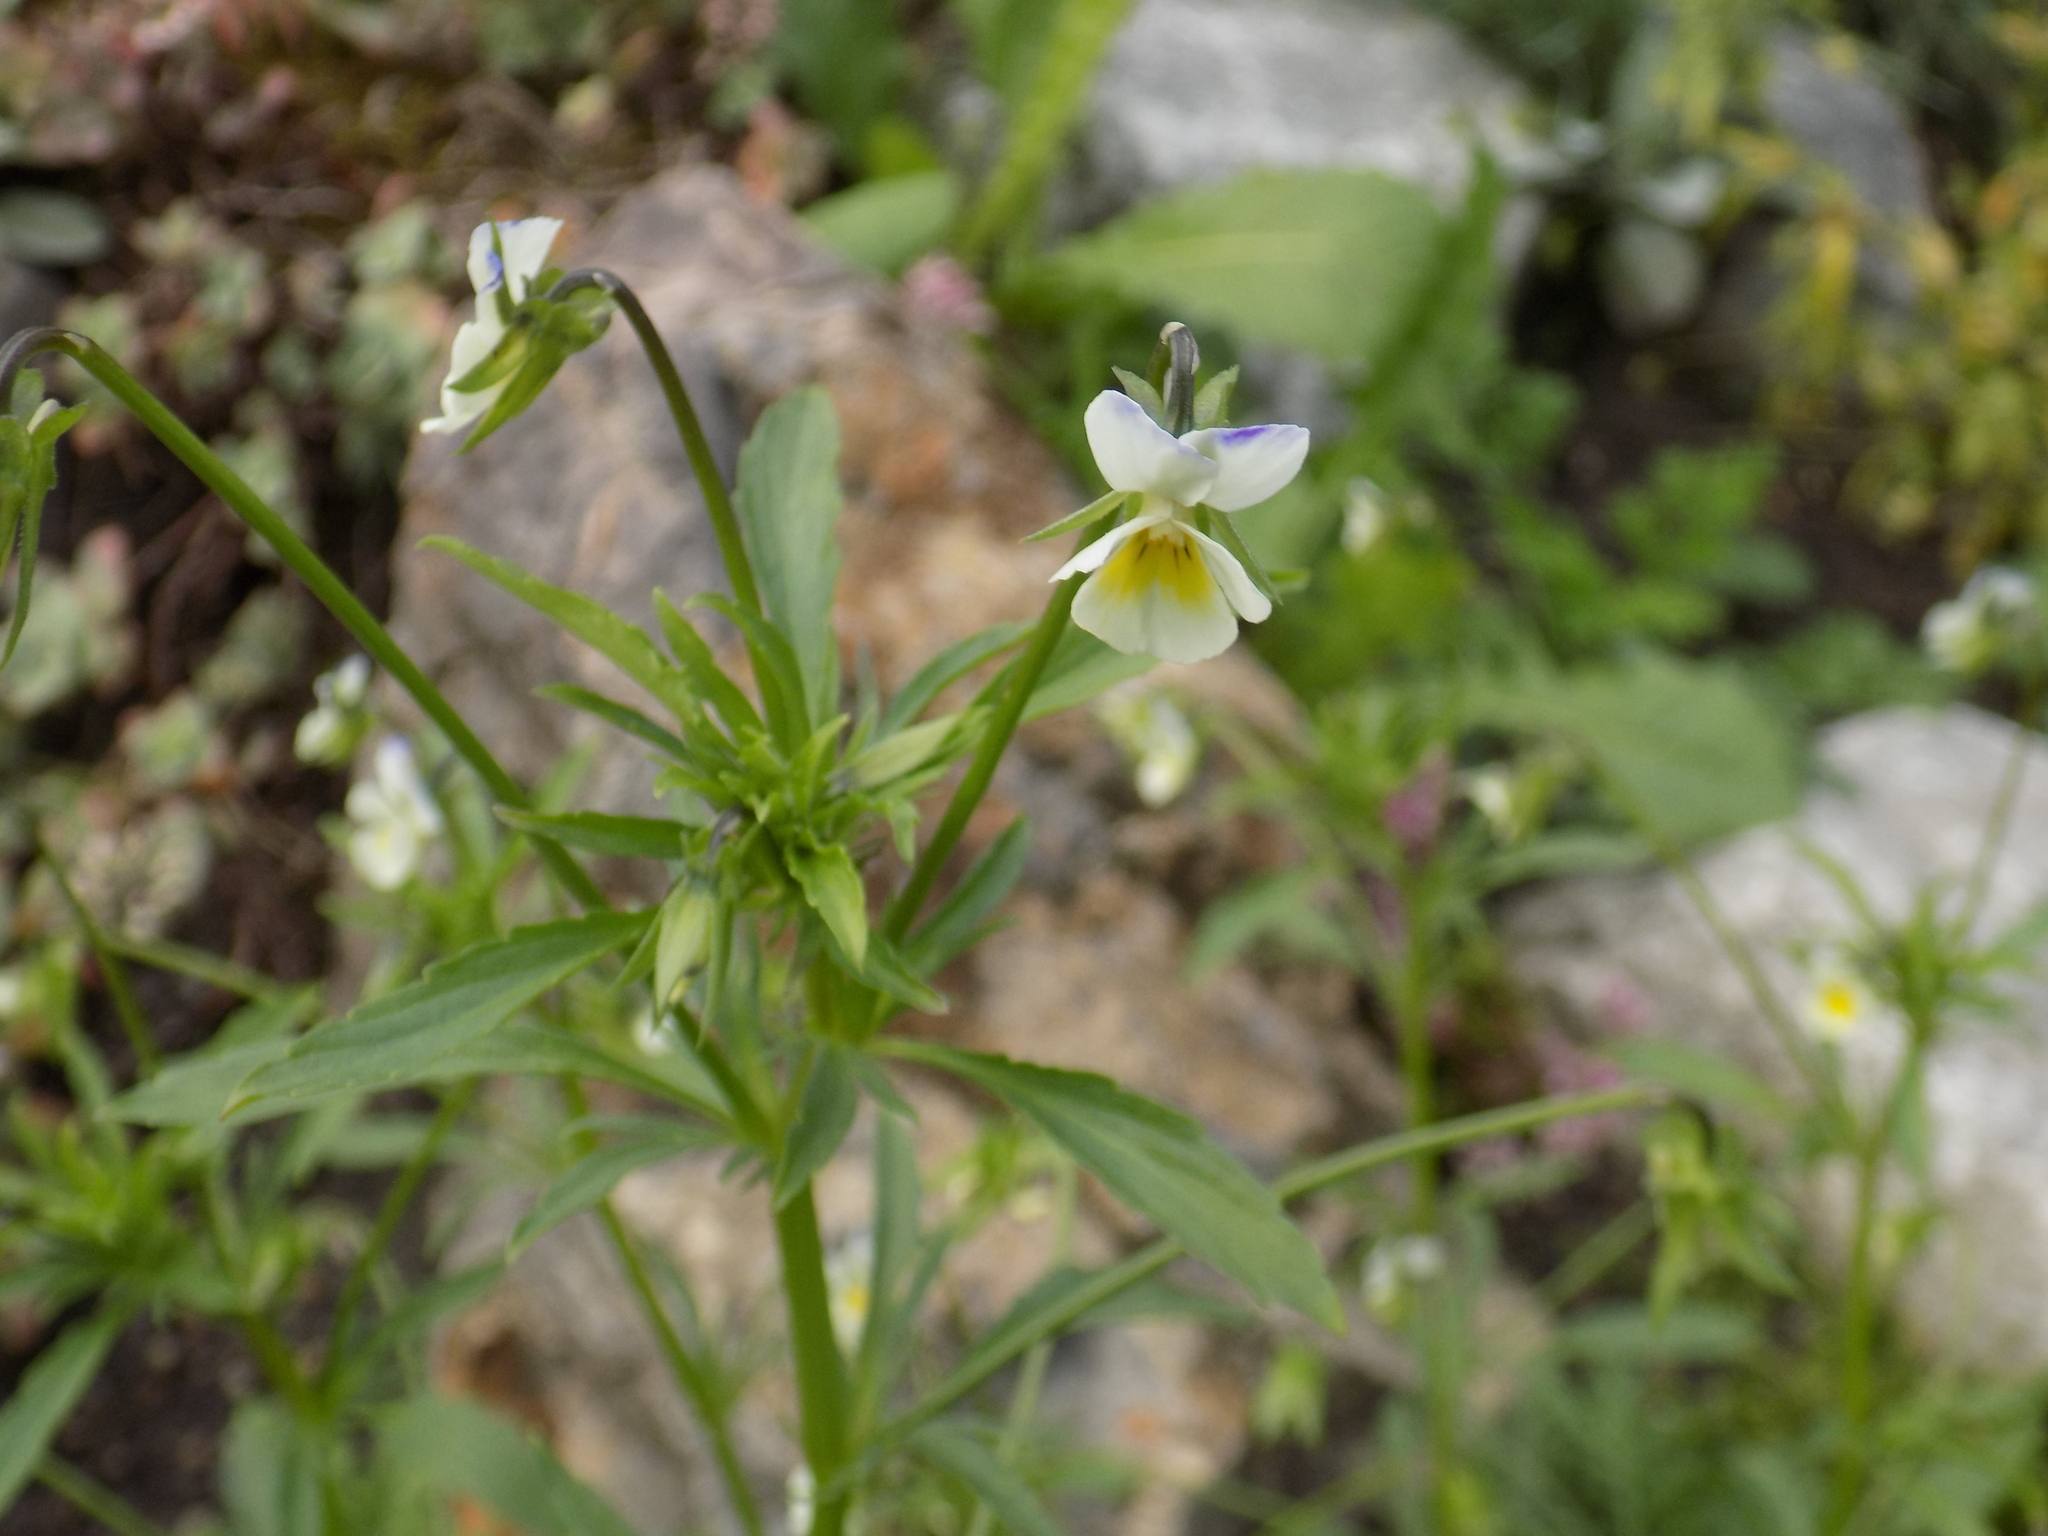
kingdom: Plantae
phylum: Tracheophyta
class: Magnoliopsida
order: Malpighiales
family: Violaceae
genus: Viola
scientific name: Viola arvensis
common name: Field pansy
